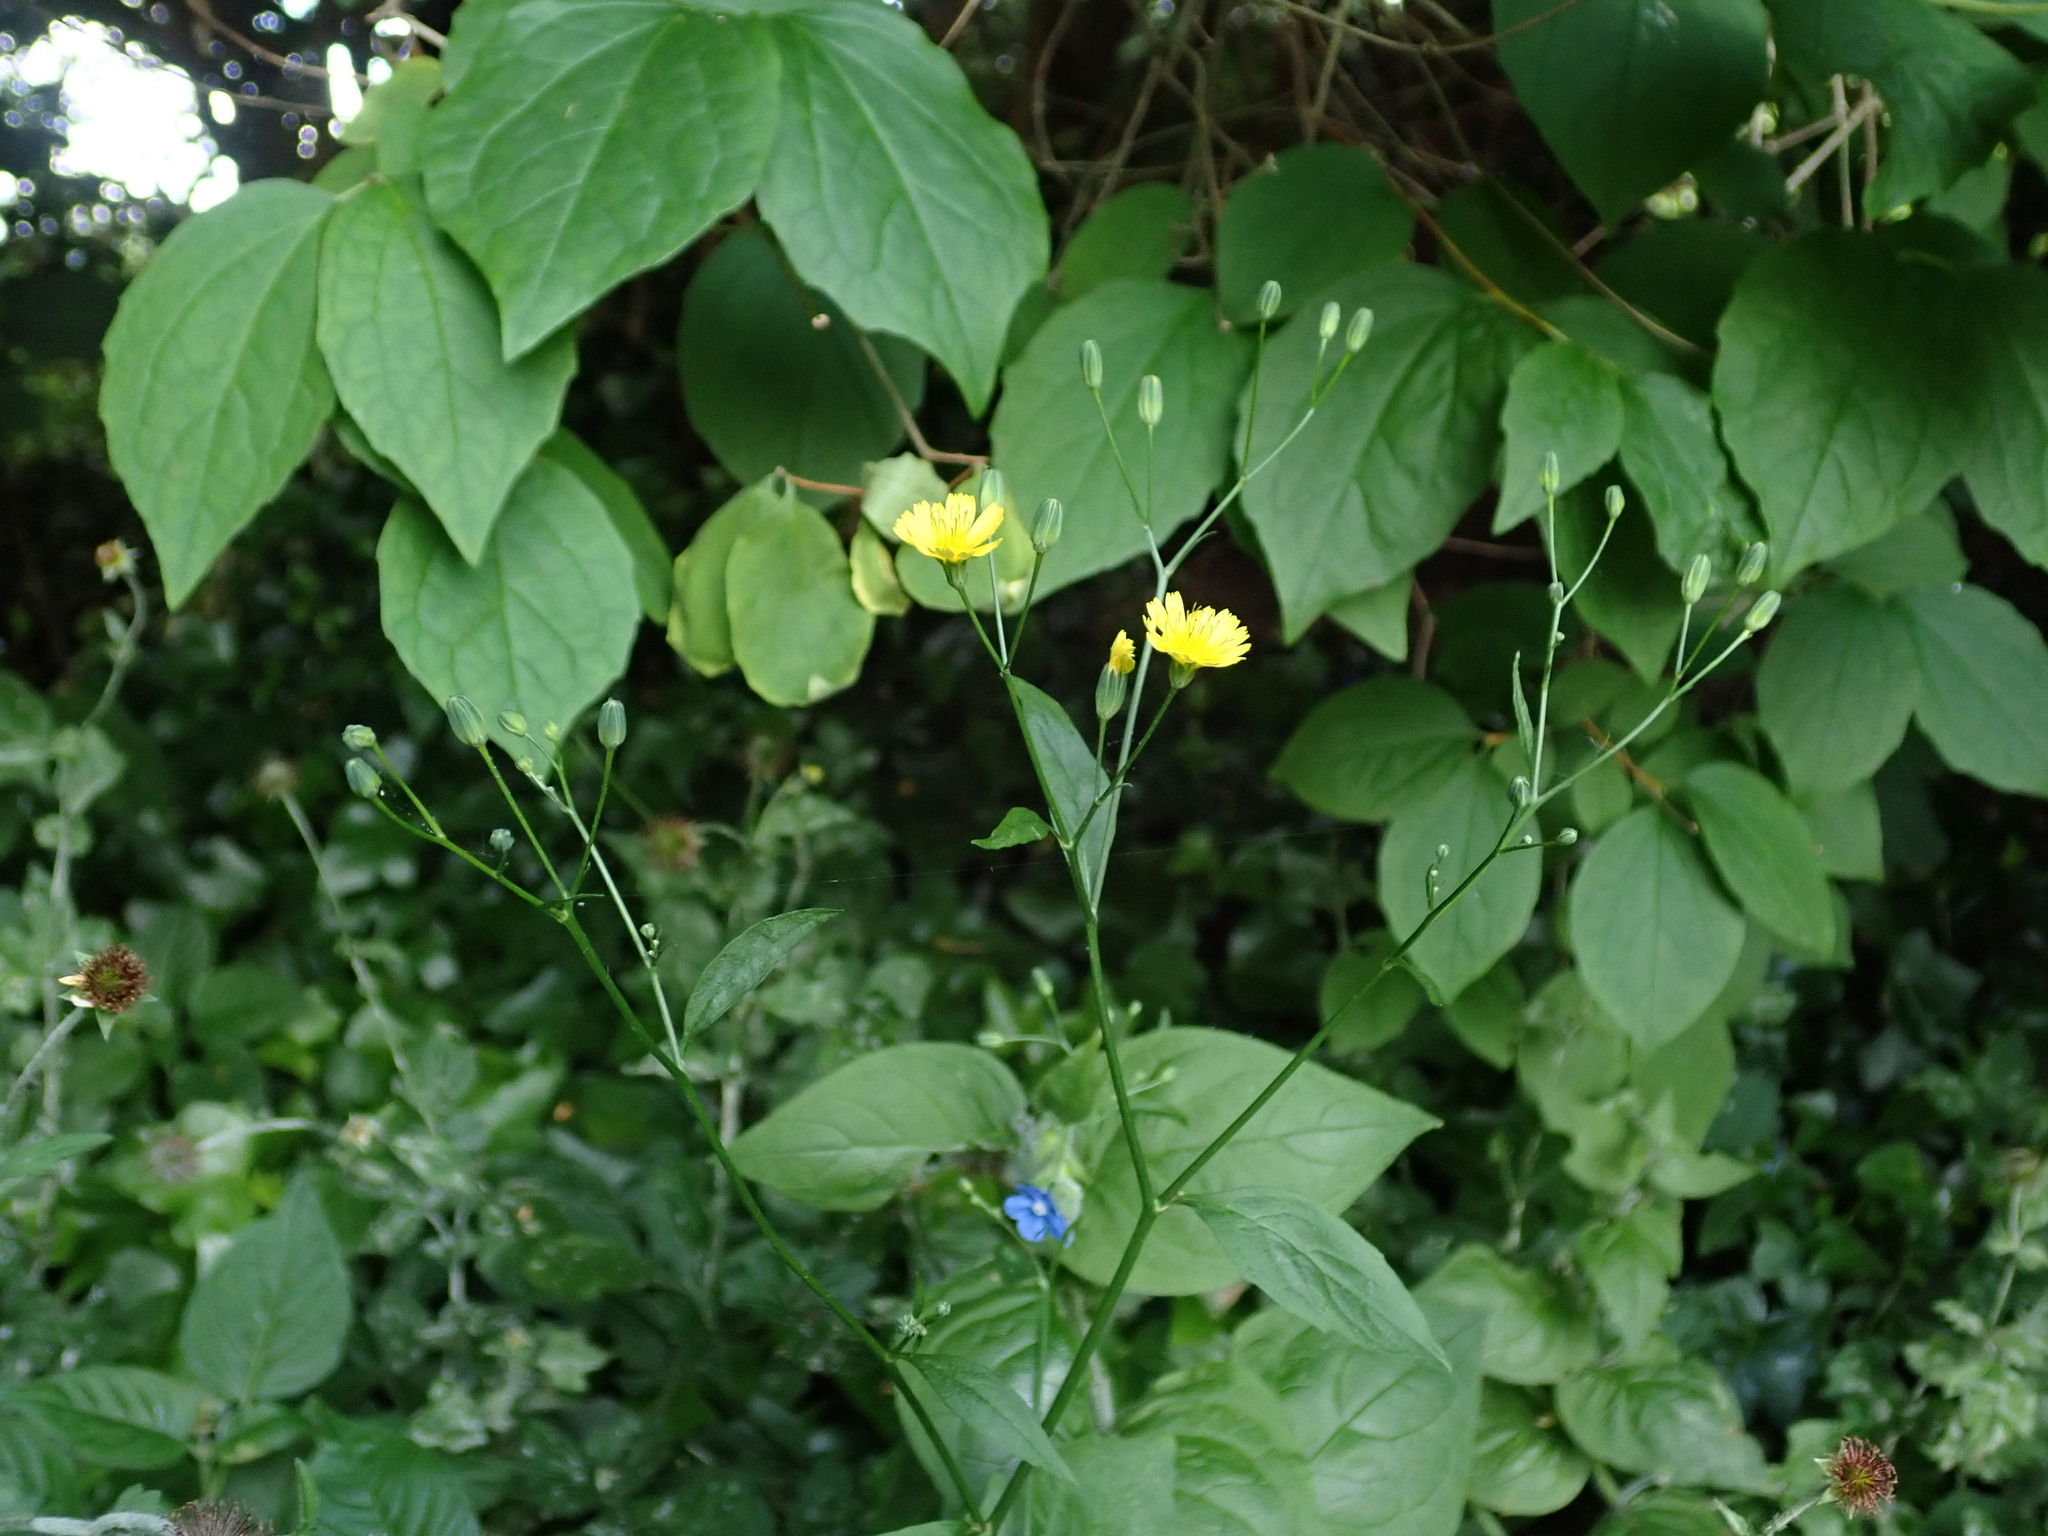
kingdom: Plantae
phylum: Tracheophyta
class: Magnoliopsida
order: Asterales
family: Asteraceae
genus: Lapsana
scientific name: Lapsana communis
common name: Nipplewort
